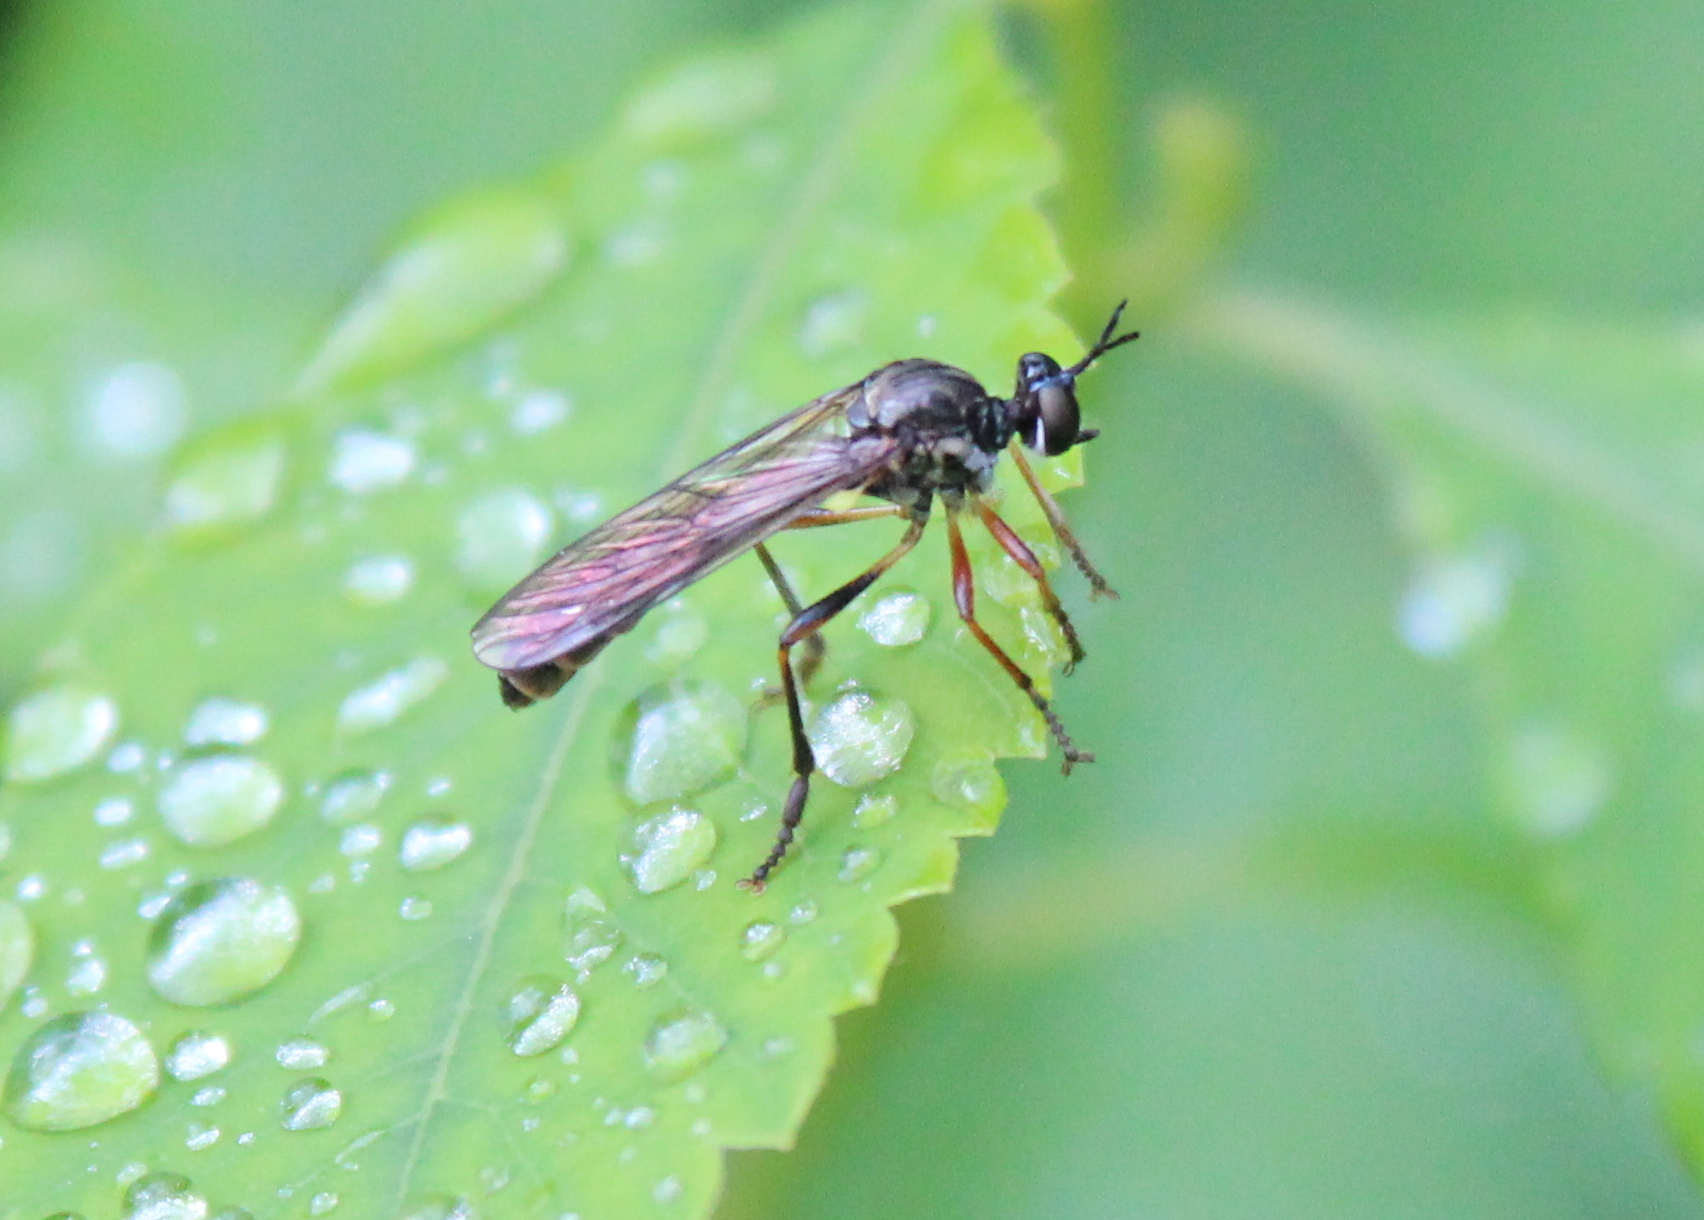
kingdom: Animalia
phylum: Arthropoda
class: Insecta
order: Diptera
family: Asilidae
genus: Dioctria
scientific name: Dioctria hyalipennis
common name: Stripe-legged robberfly
